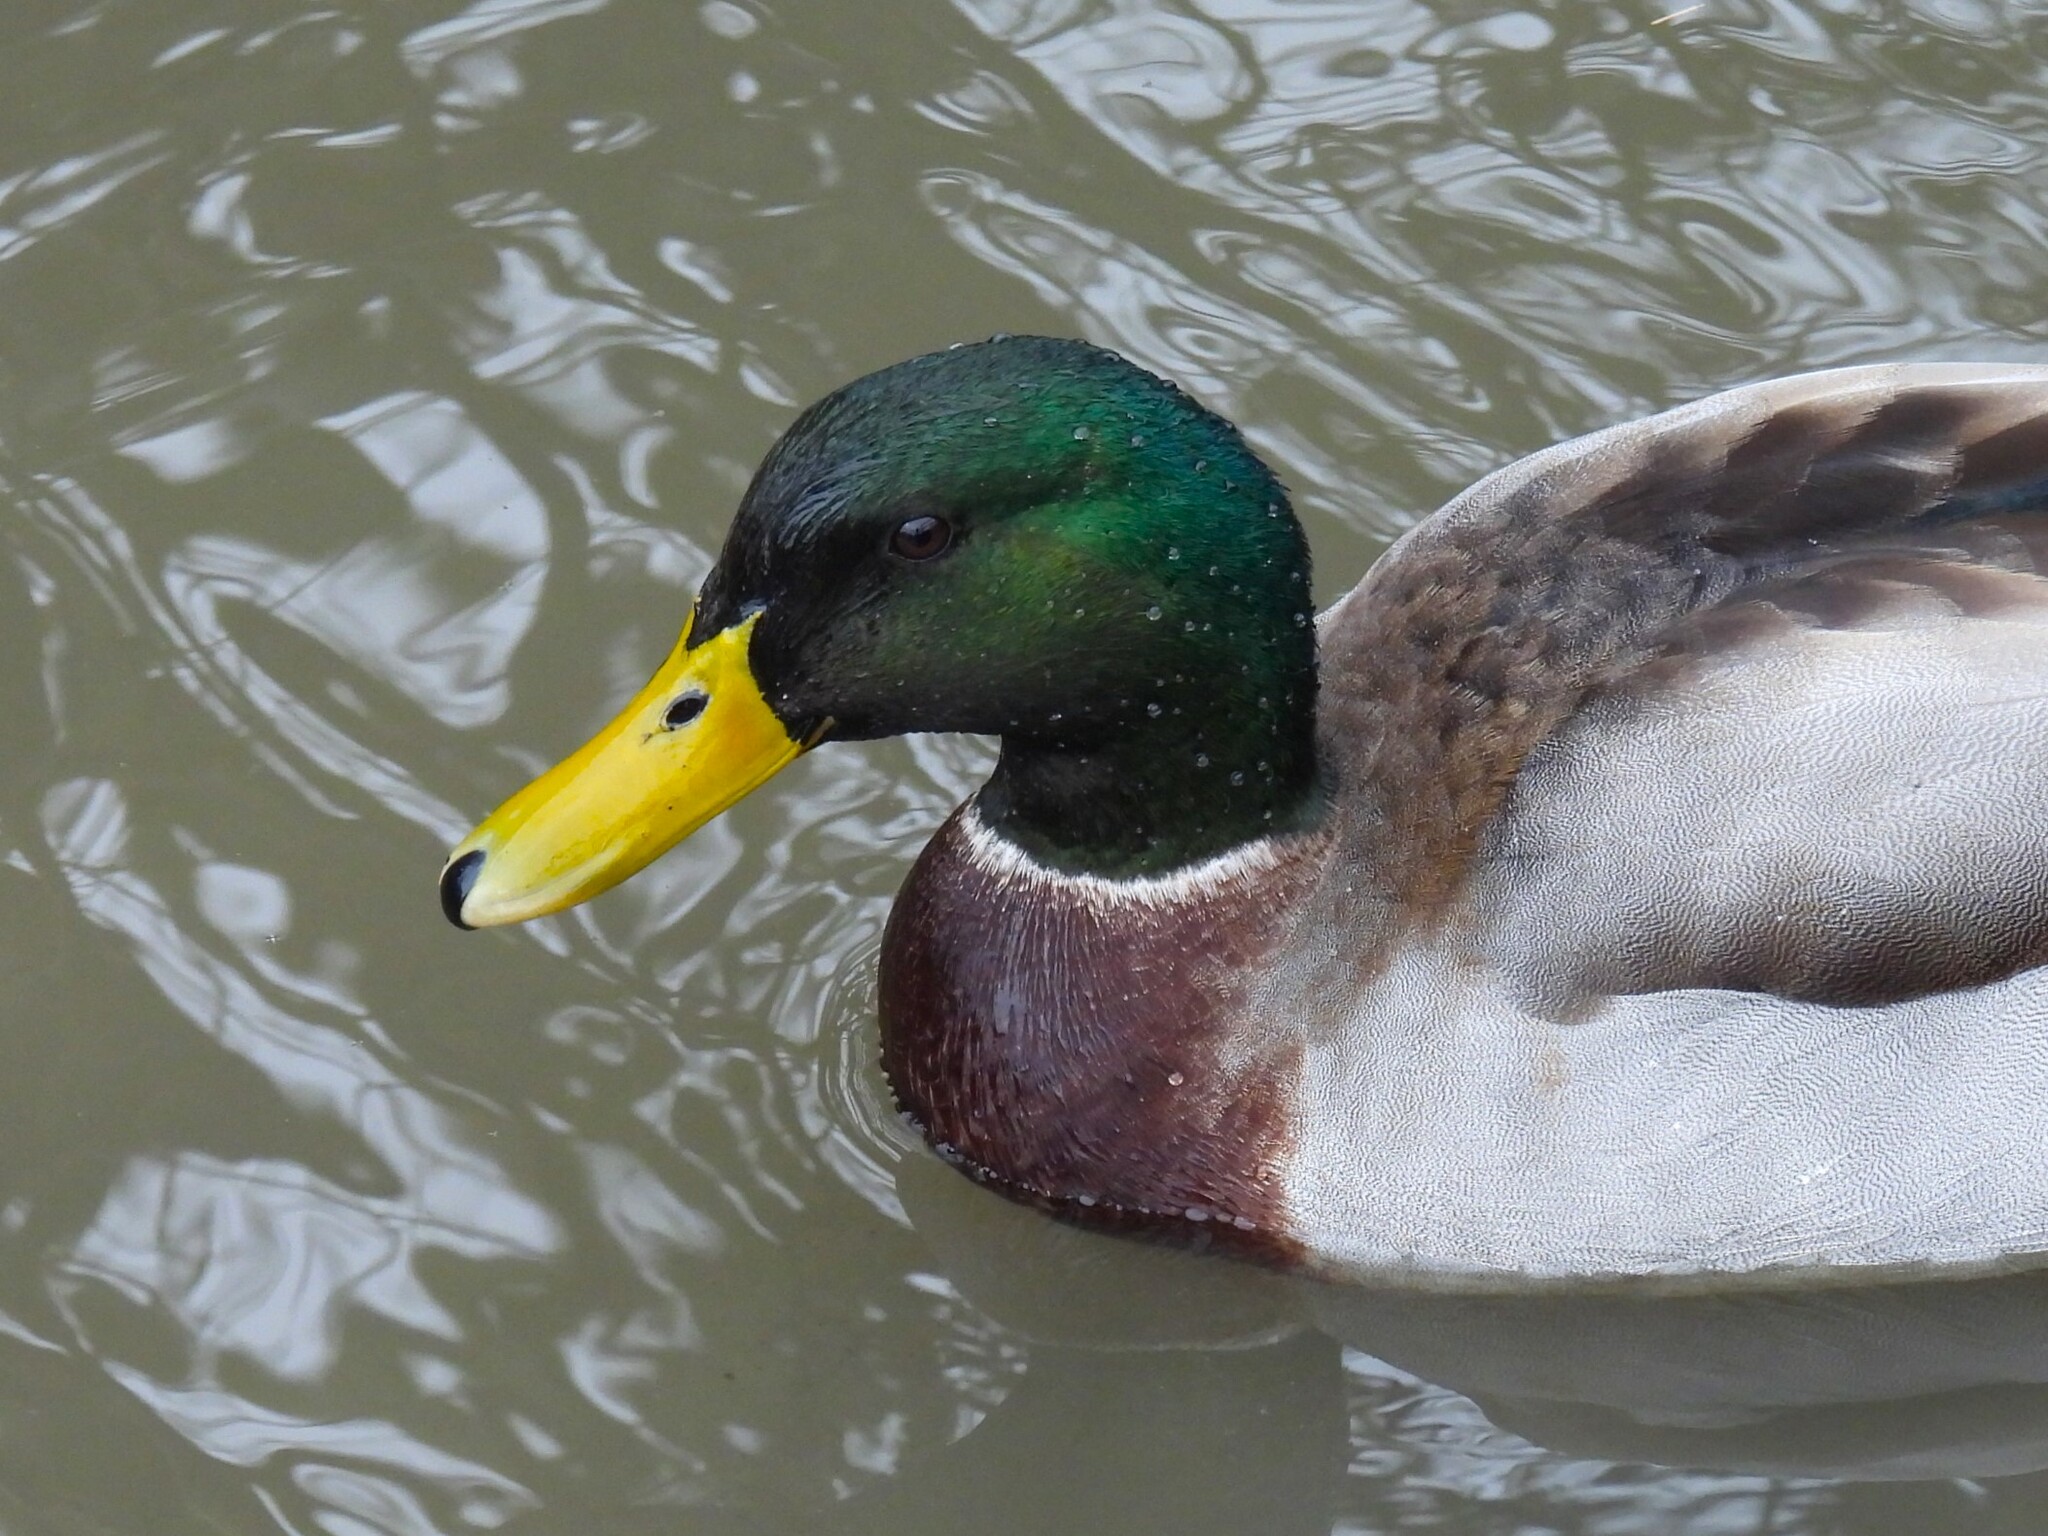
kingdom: Animalia
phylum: Chordata
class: Aves
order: Anseriformes
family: Anatidae
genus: Anas
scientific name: Anas platyrhynchos
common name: Mallard
